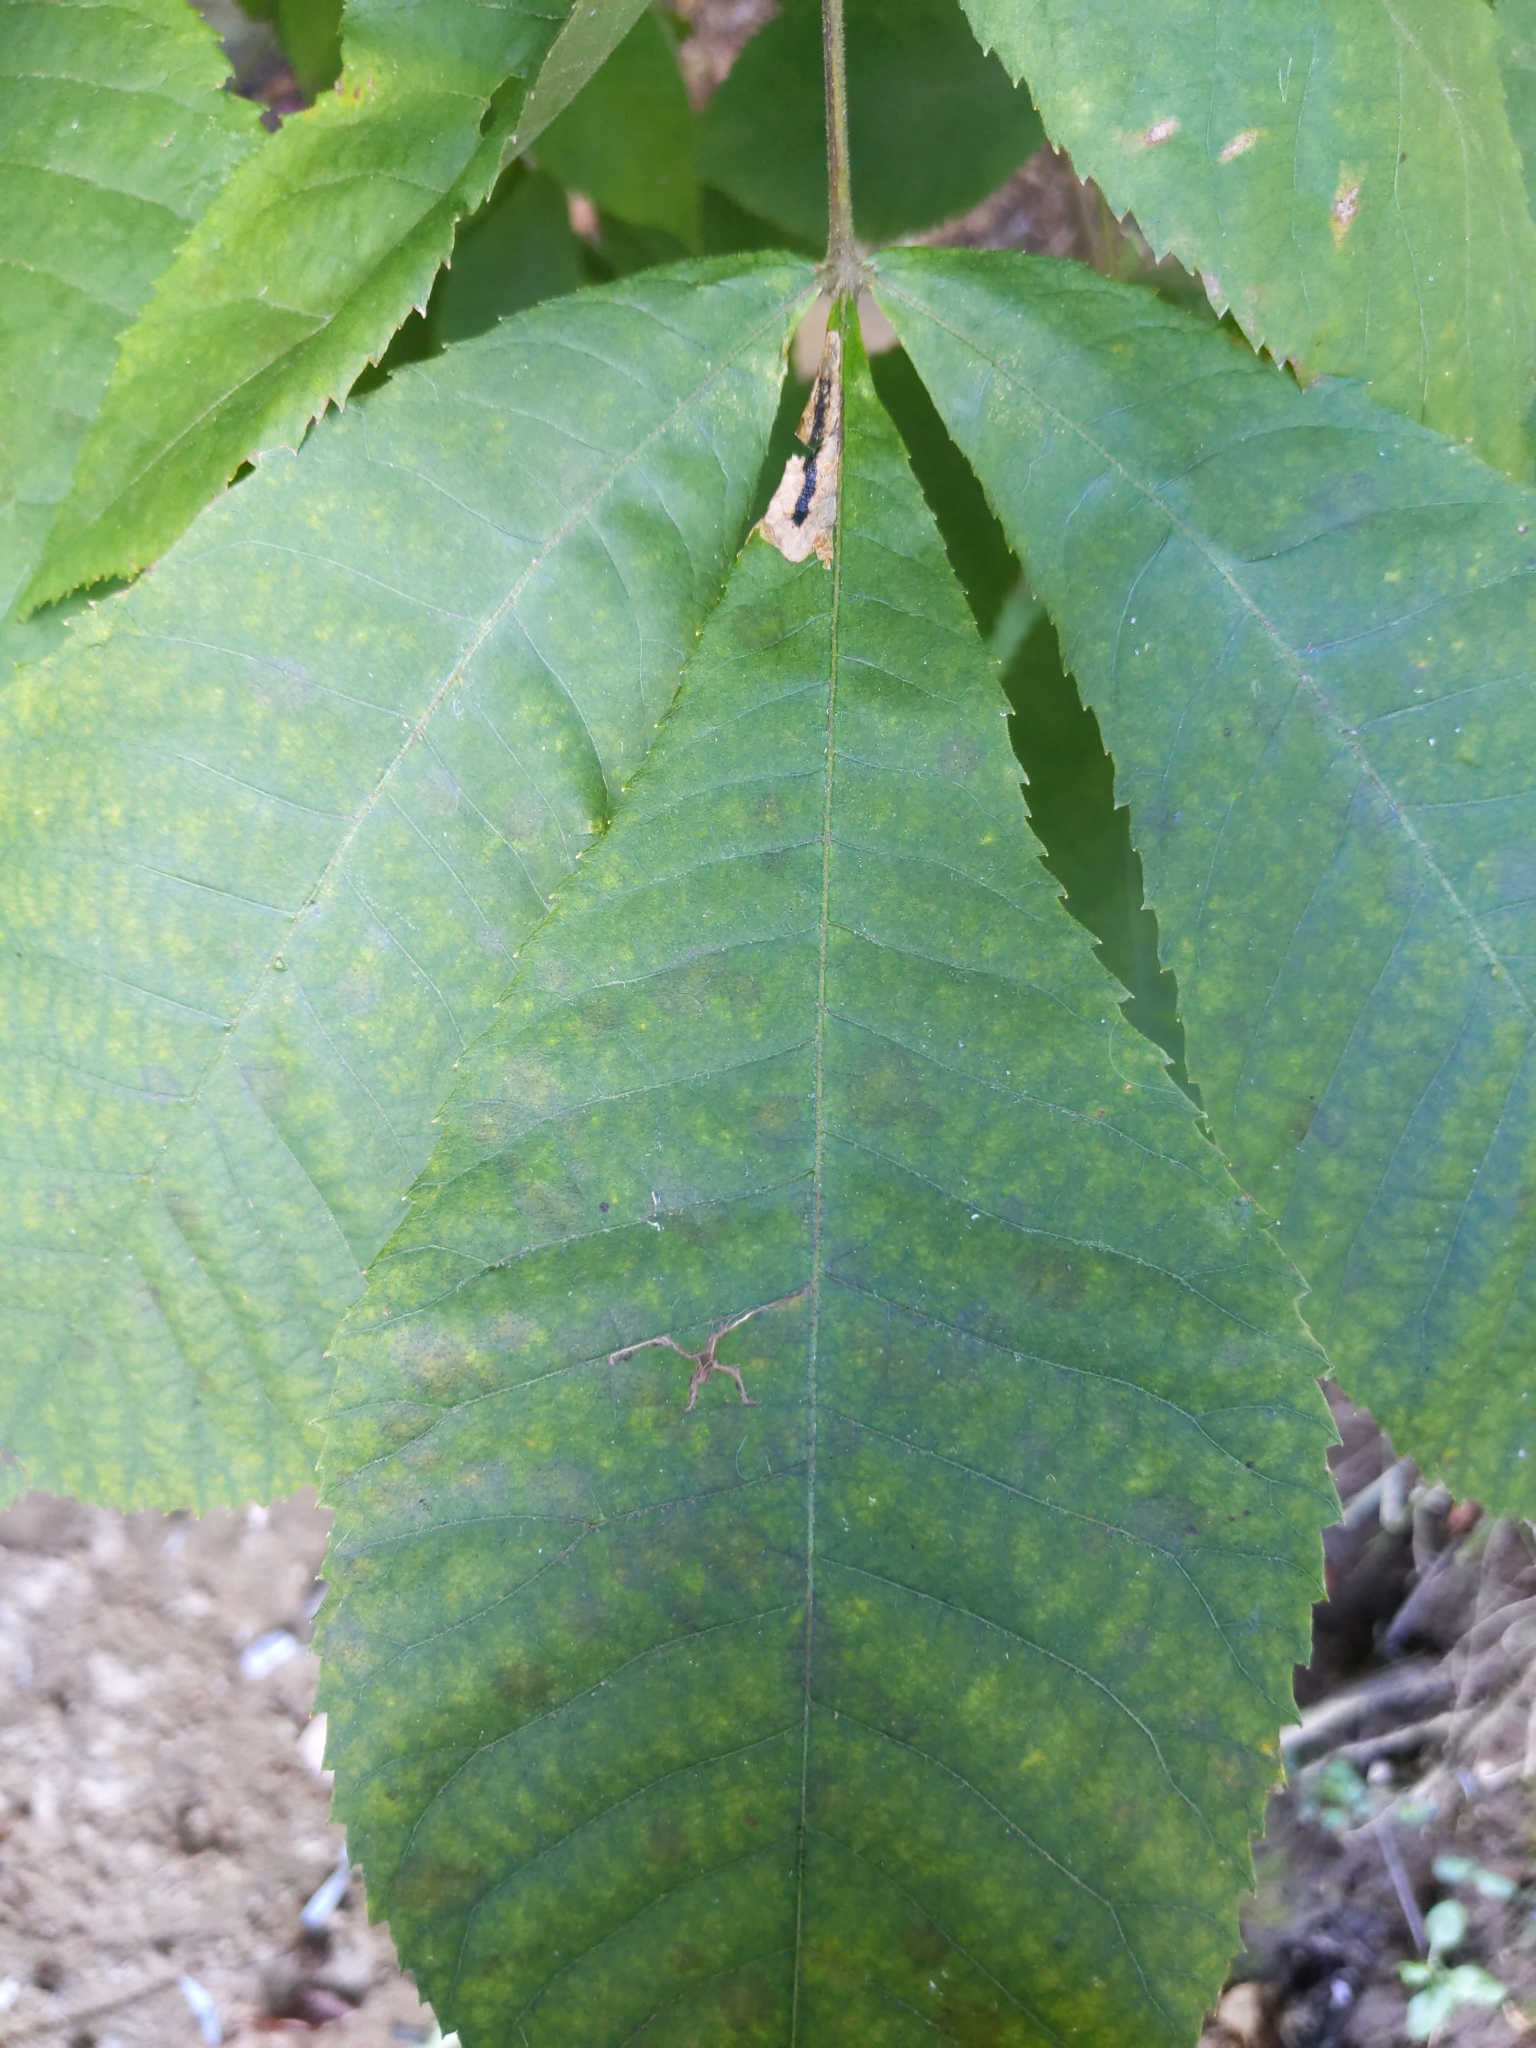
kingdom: Animalia
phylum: Arthropoda
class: Insecta
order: Lepidoptera
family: Gracillariidae
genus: Cameraria
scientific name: Cameraria caryaefoliella
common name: Pecan leafminer moth
